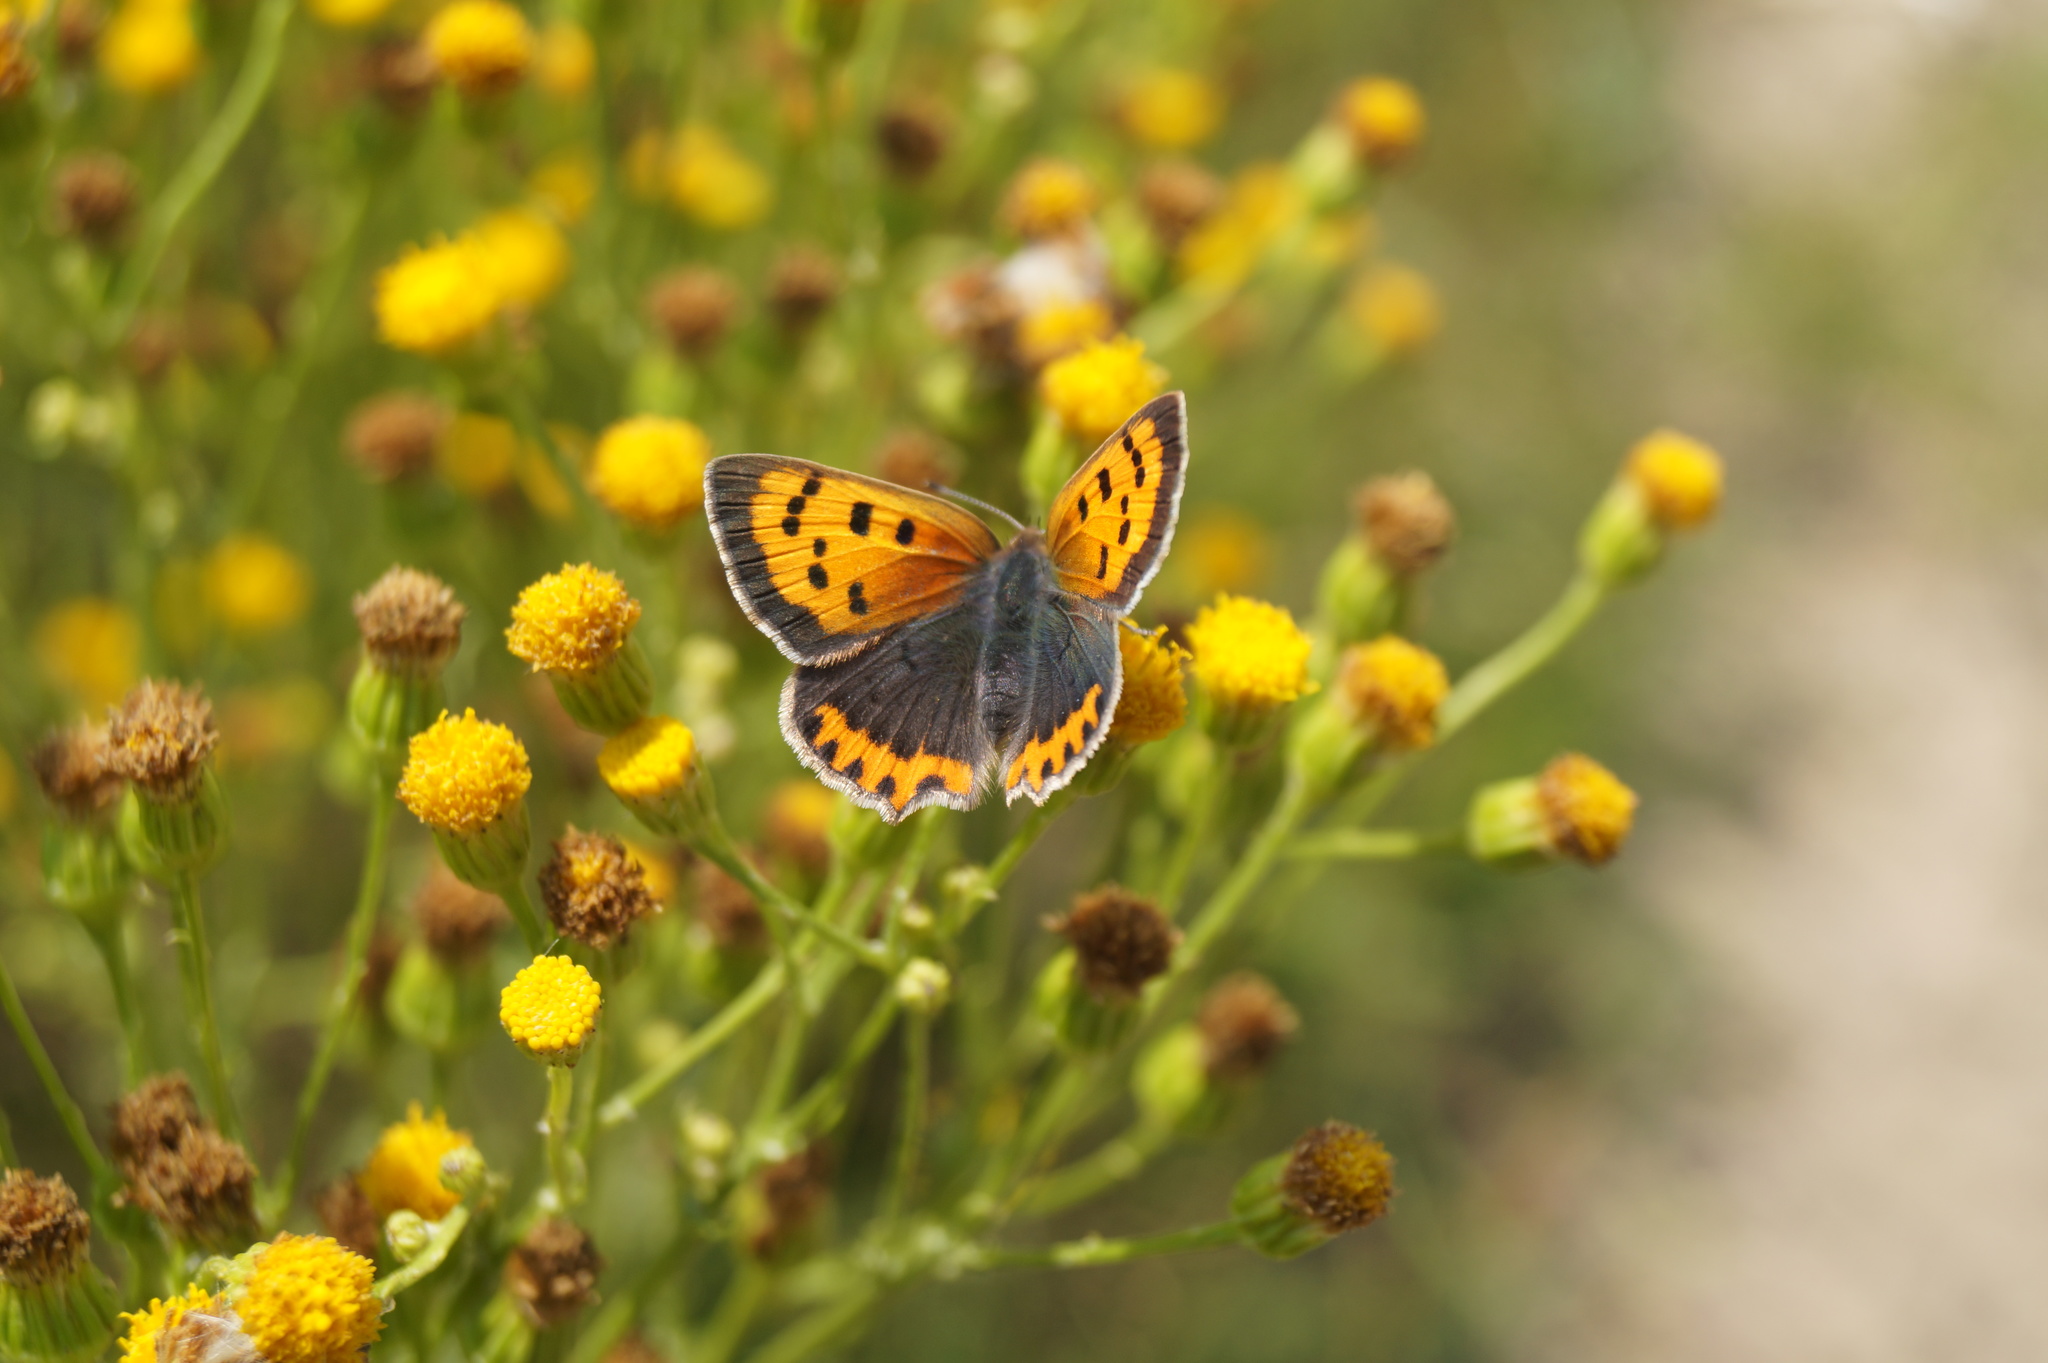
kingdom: Animalia
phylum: Arthropoda
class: Insecta
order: Lepidoptera
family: Lycaenidae
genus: Lycaena
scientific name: Lycaena phlaeas
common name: Small copper
